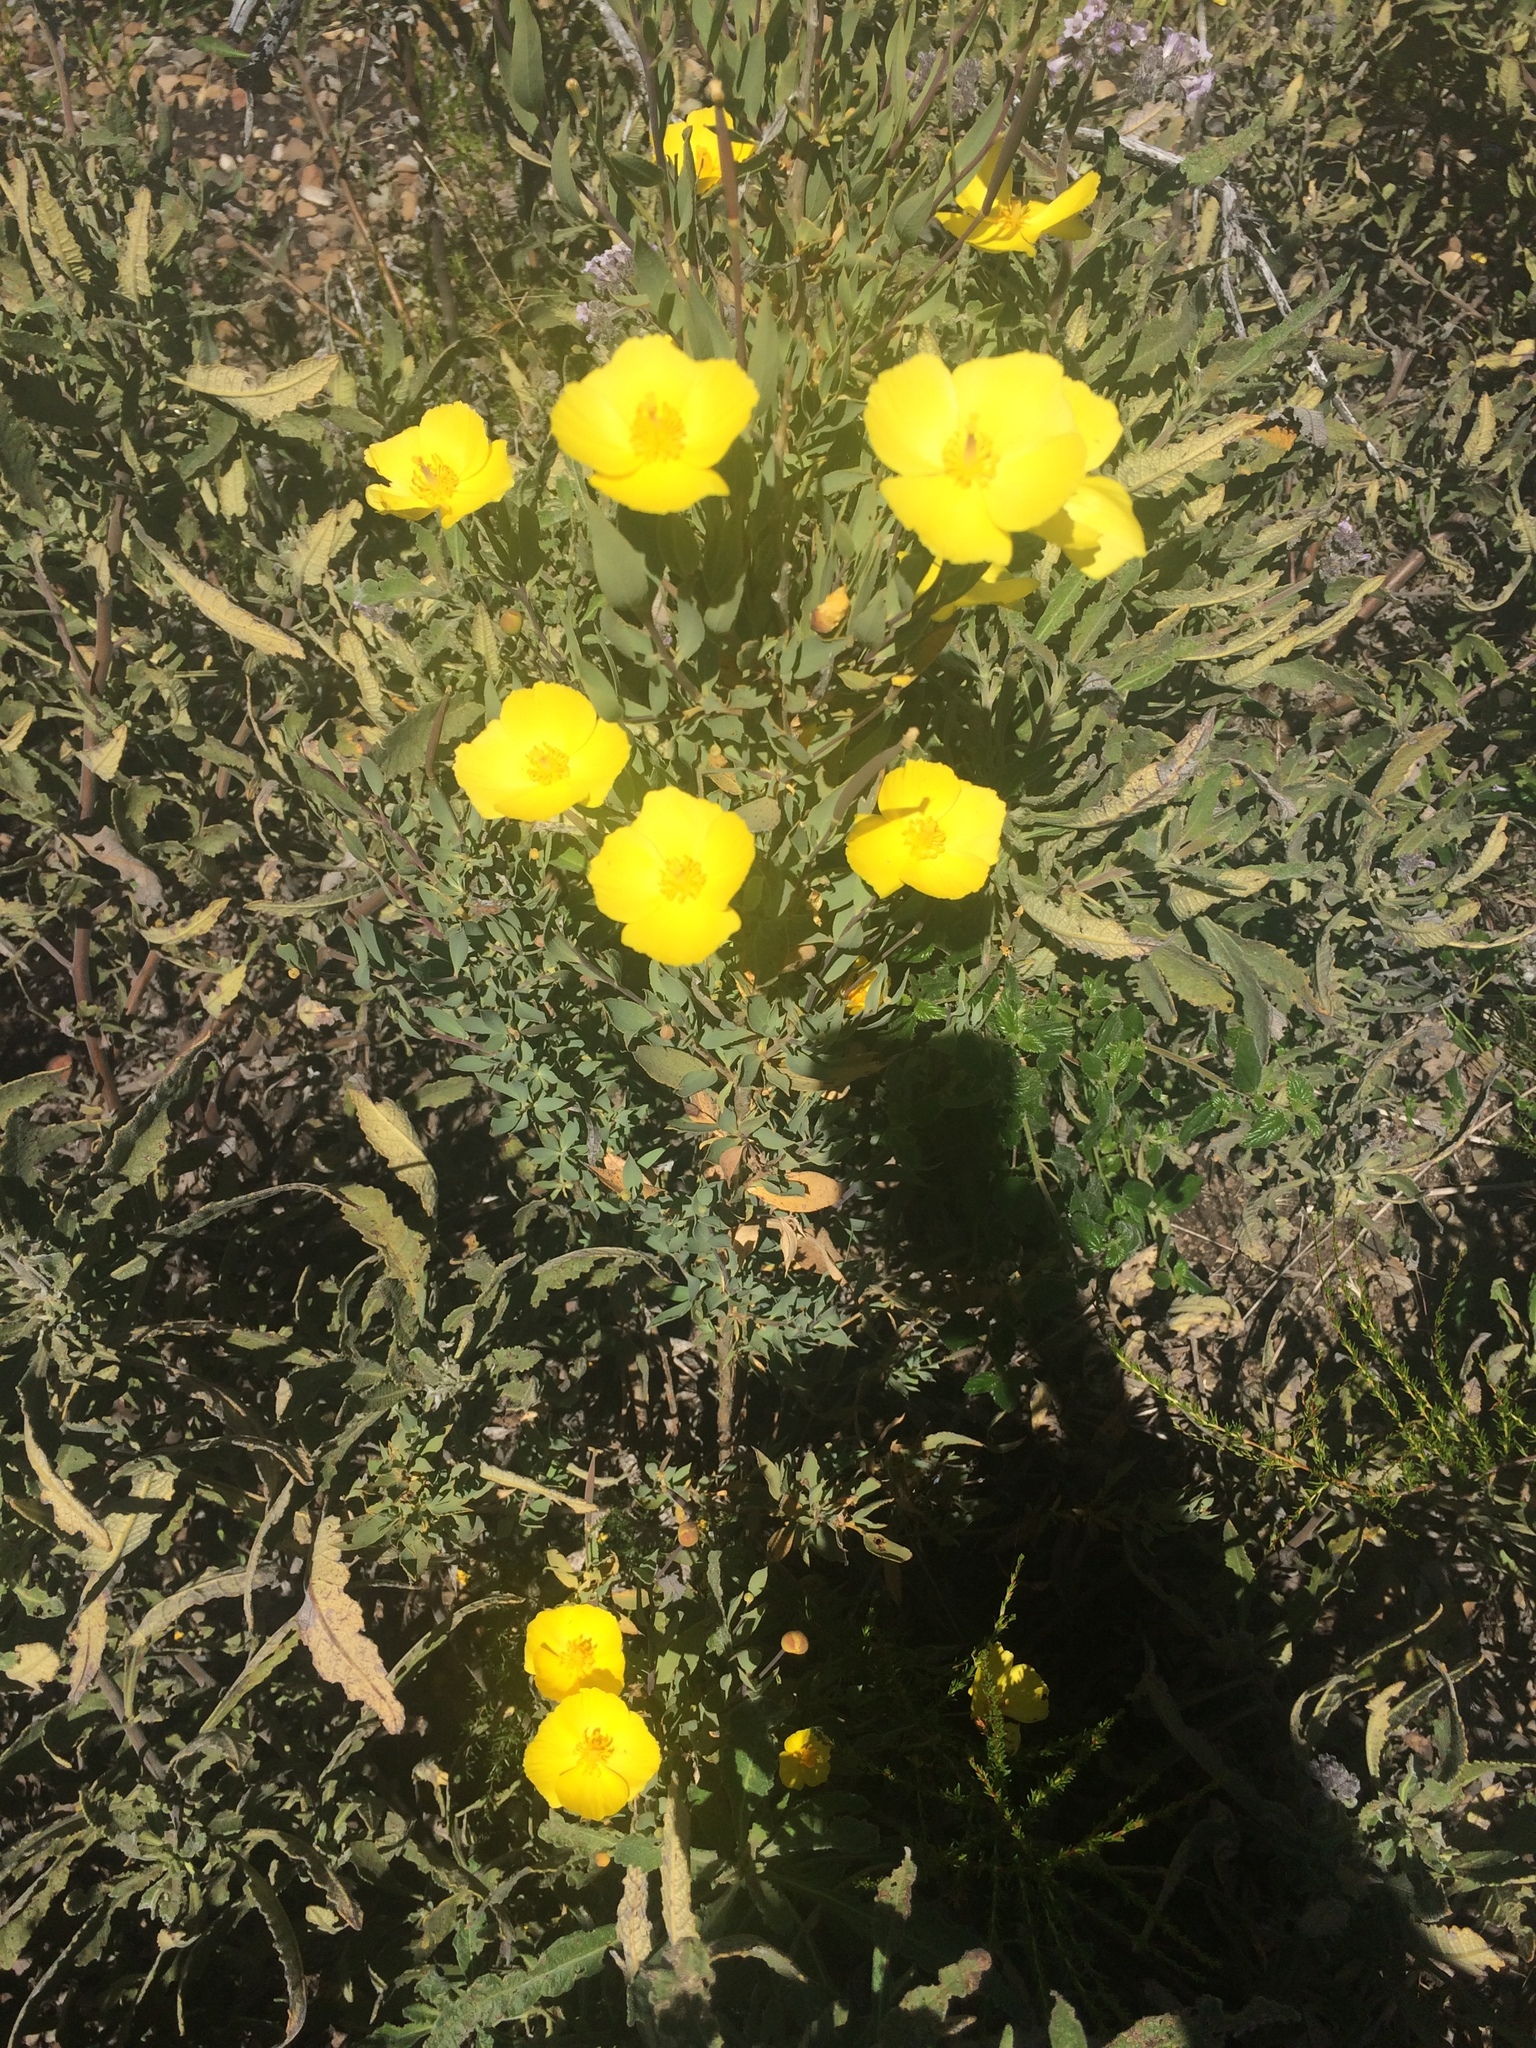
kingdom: Plantae
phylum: Tracheophyta
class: Magnoliopsida
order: Ranunculales
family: Papaveraceae
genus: Dendromecon
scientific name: Dendromecon rigida
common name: Tree poppy
